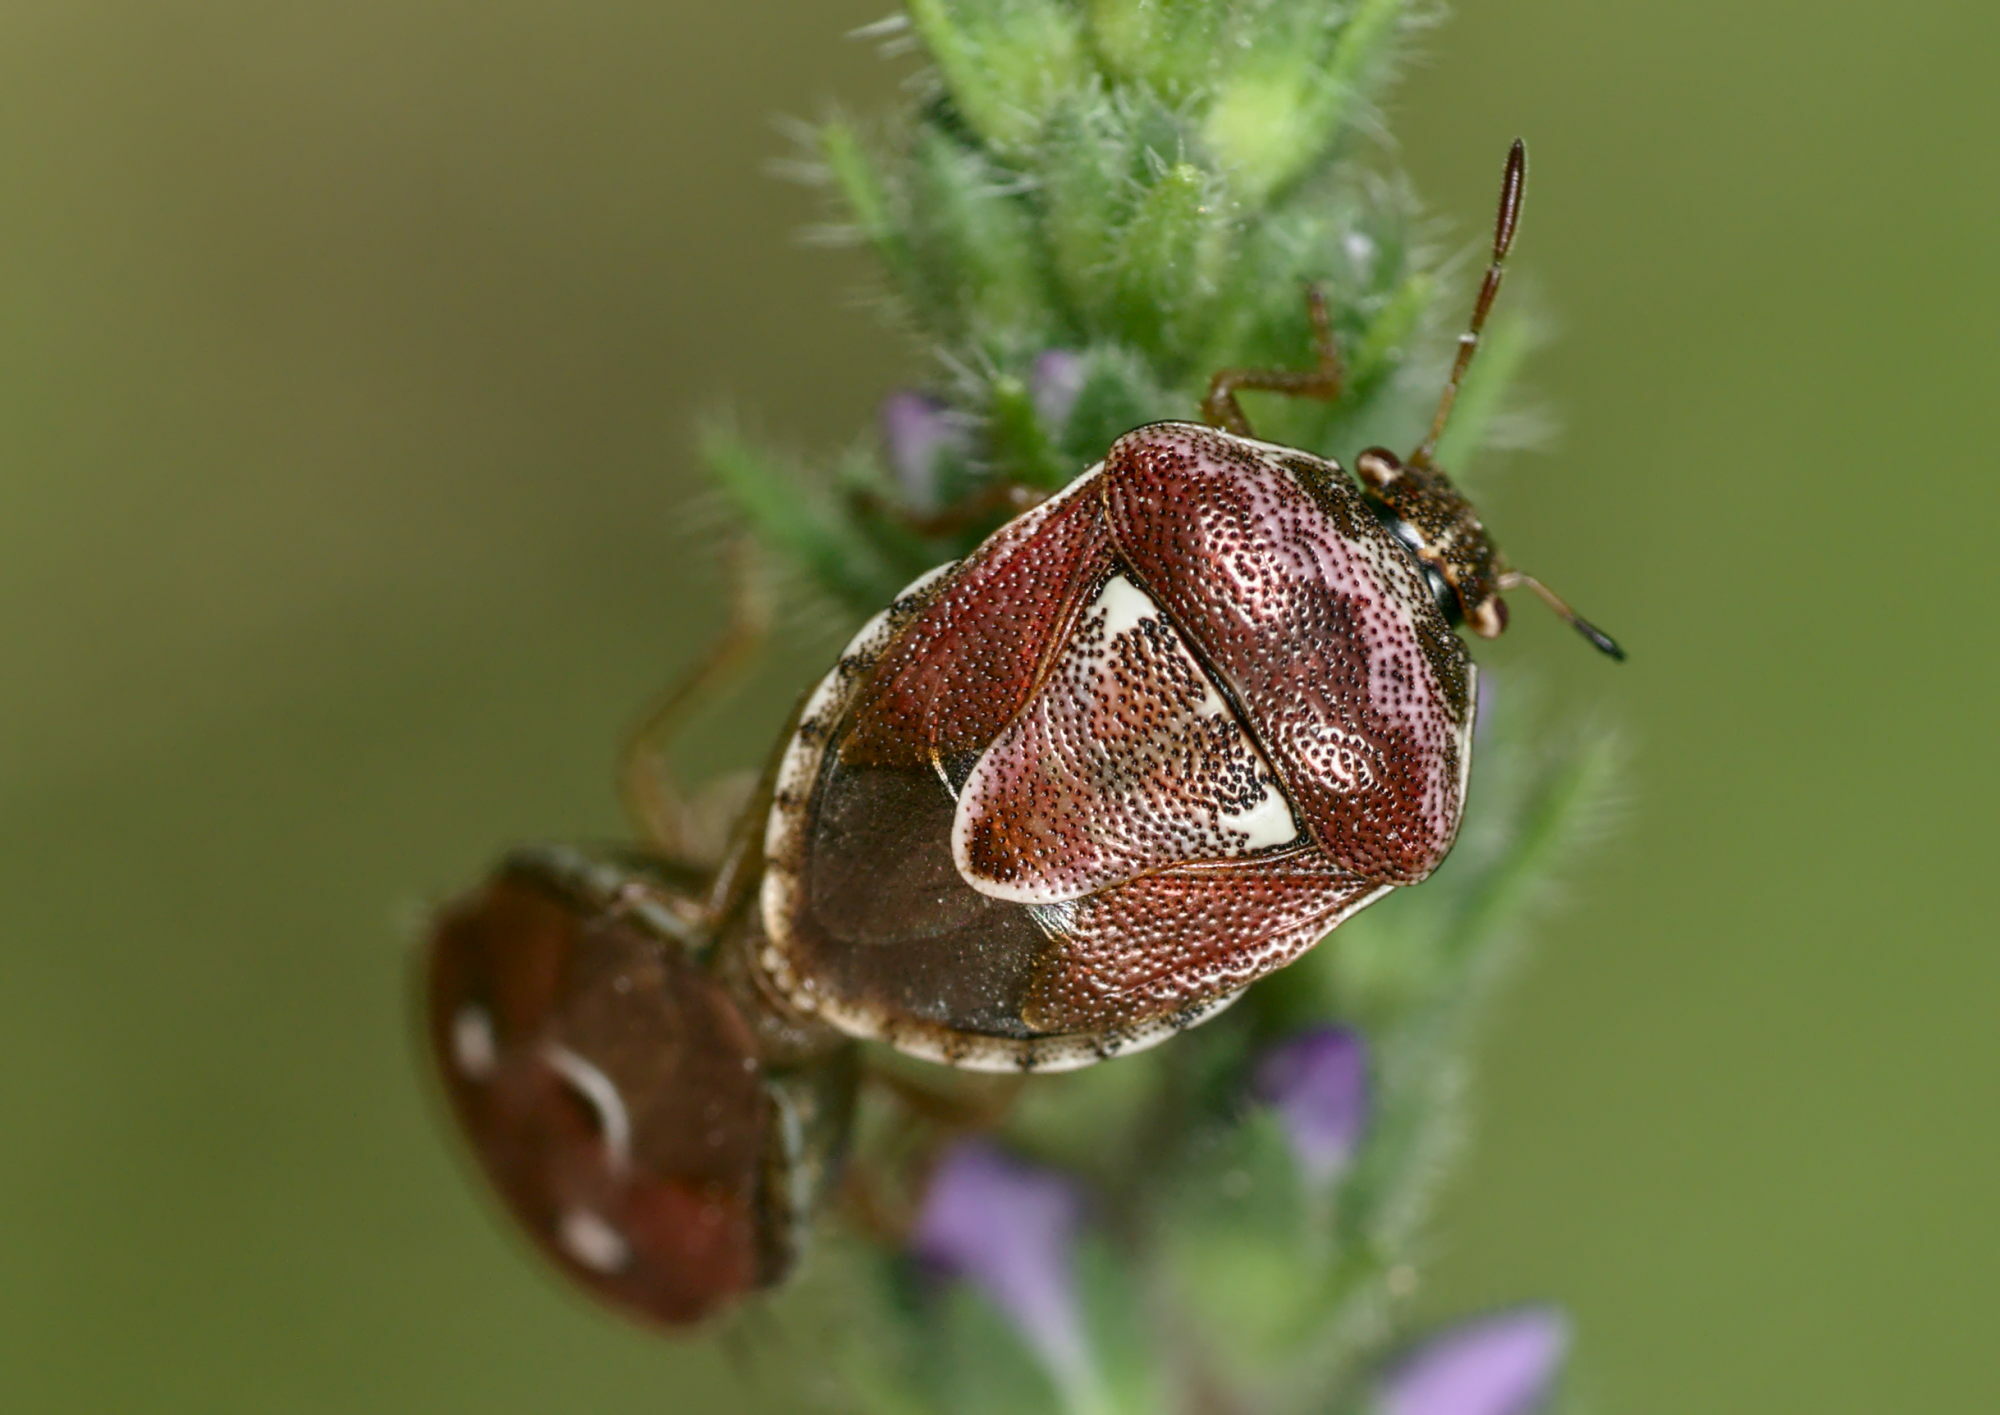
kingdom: Animalia
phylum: Arthropoda
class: Insecta
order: Hemiptera
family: Pentatomidae
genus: Stagonomus
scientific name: Stagonomus bipunctatus
